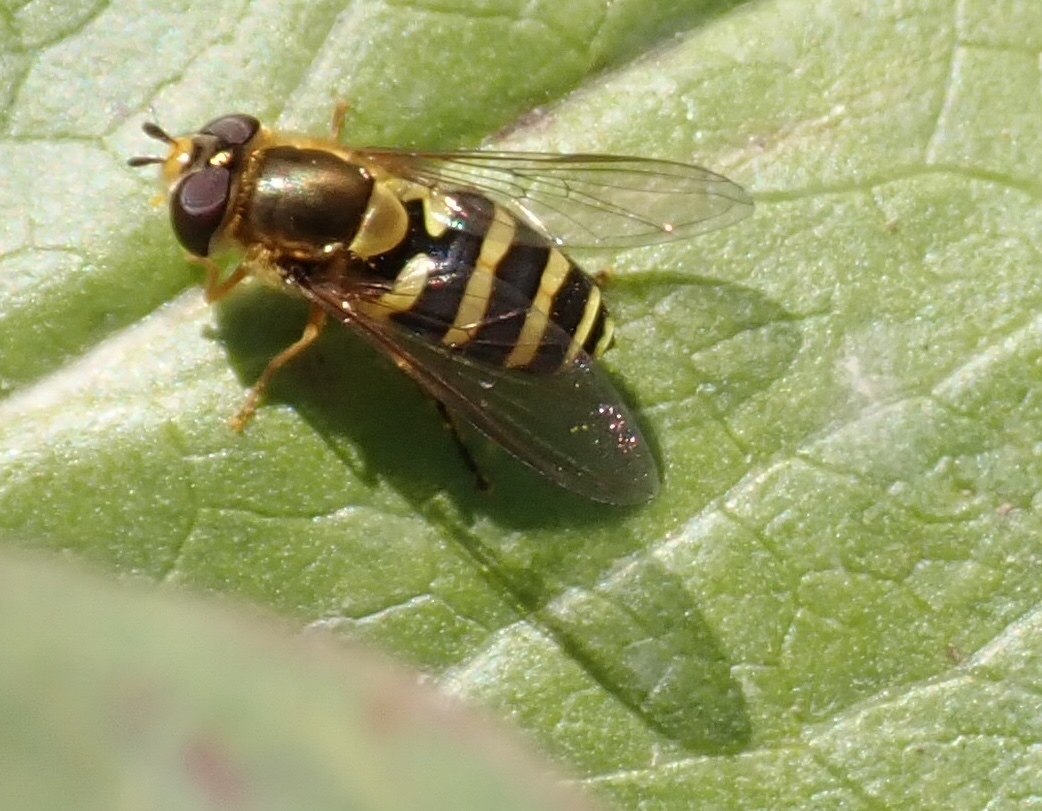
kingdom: Animalia
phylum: Arthropoda
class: Insecta
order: Diptera
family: Syrphidae
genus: Syrphus
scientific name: Syrphus opinator
